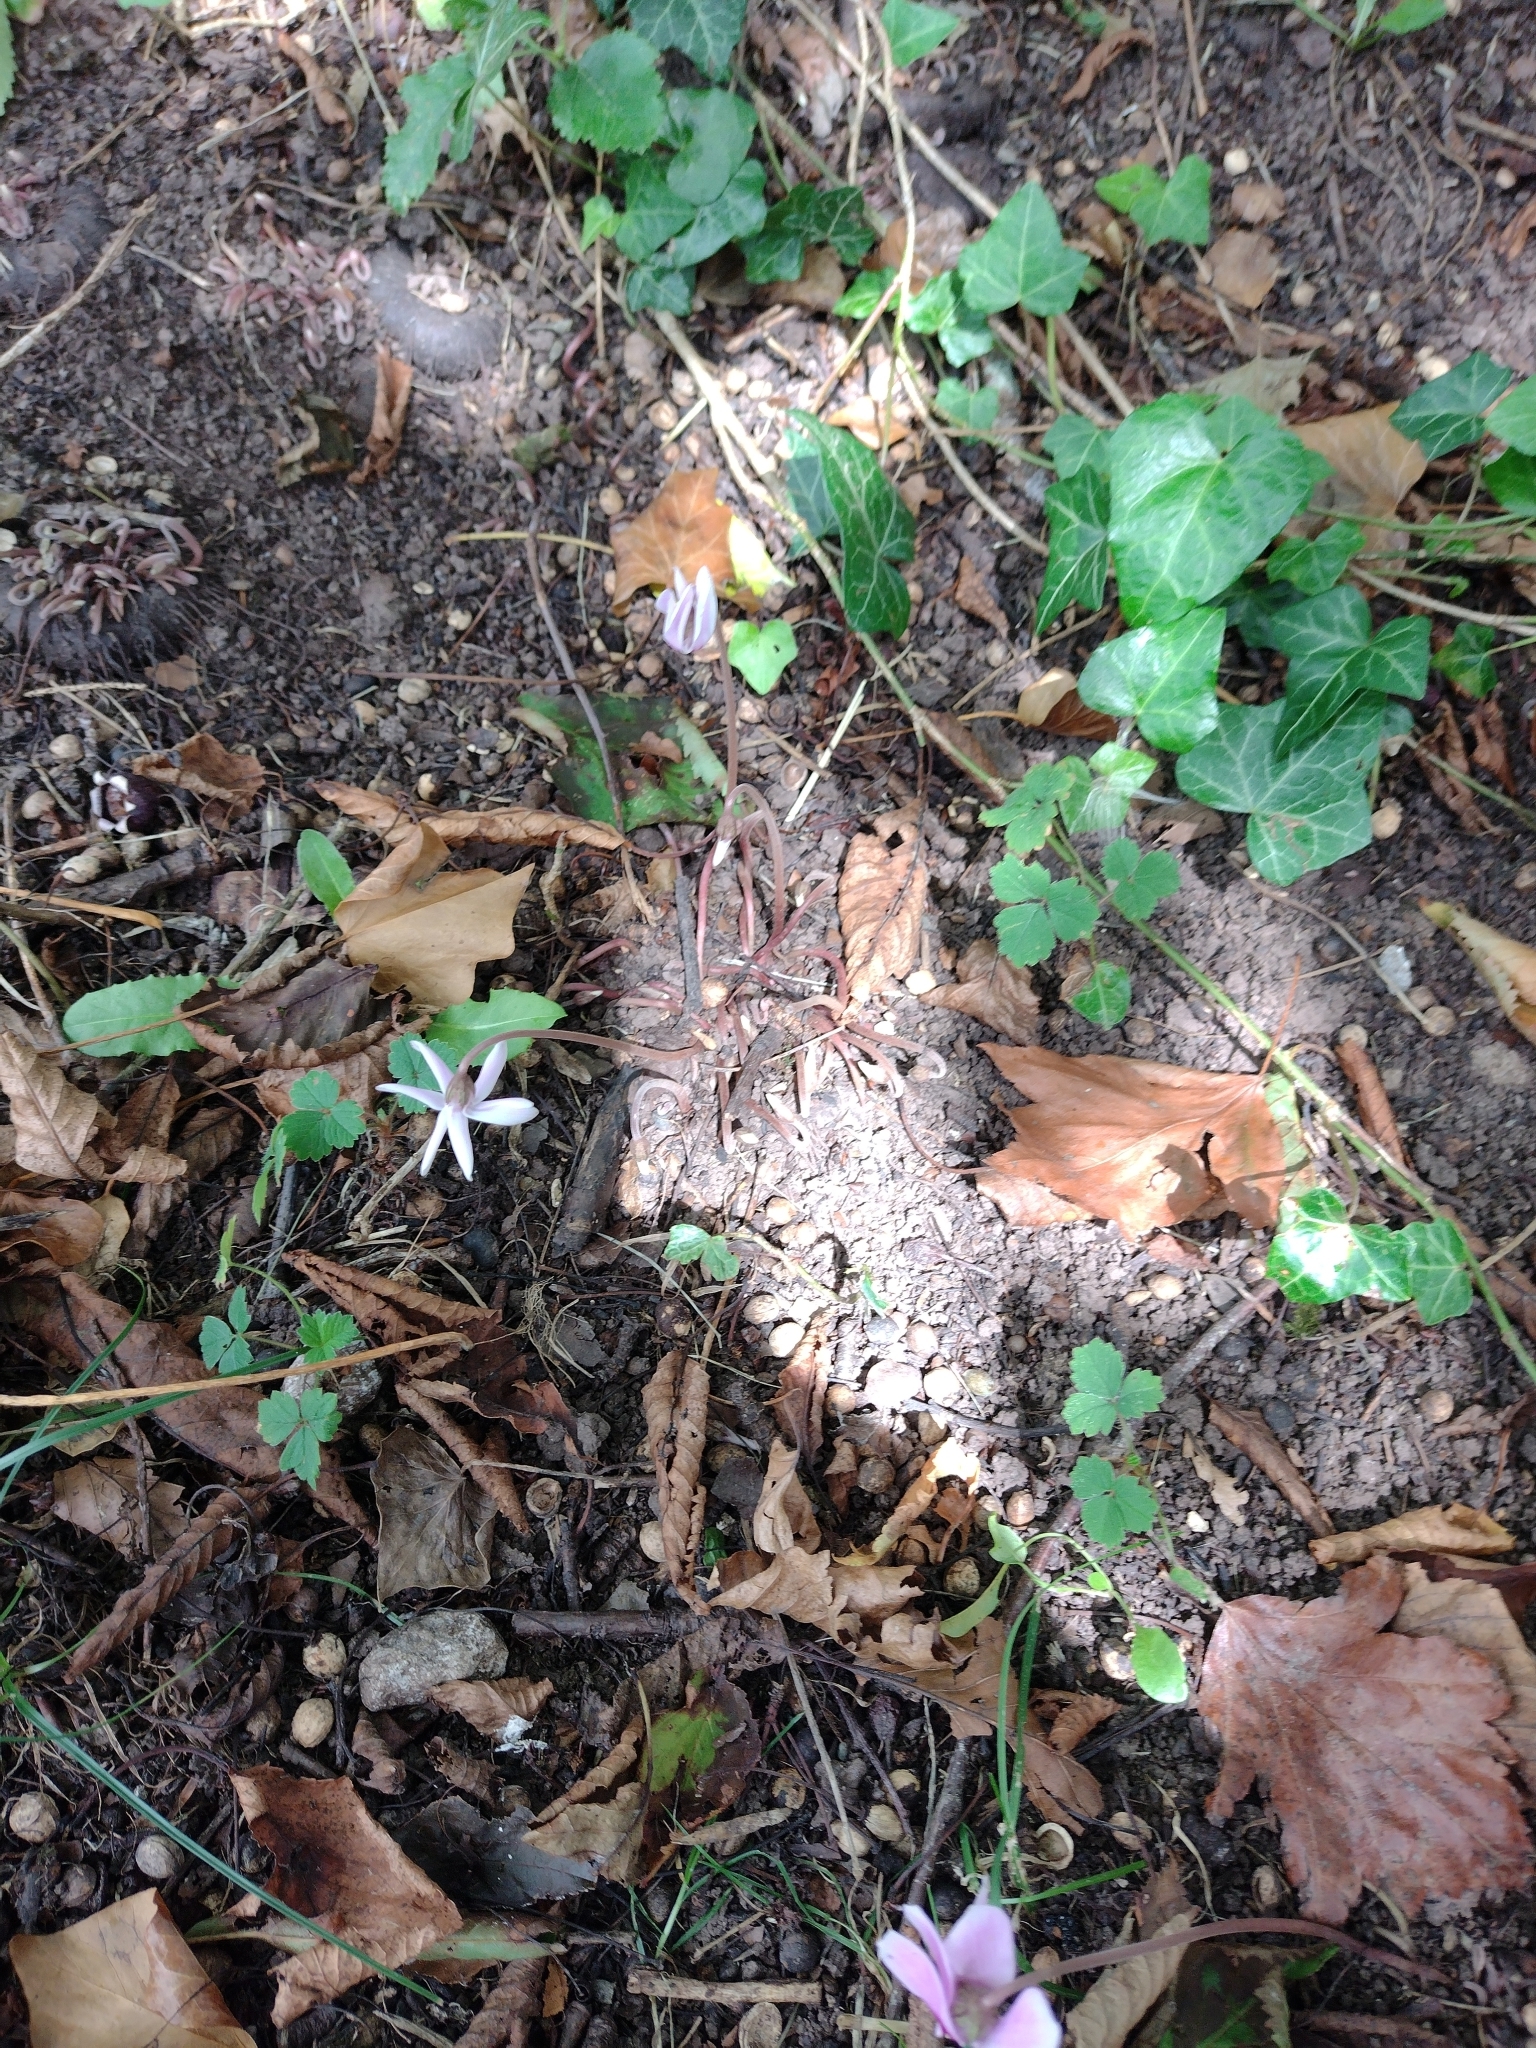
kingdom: Plantae
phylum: Tracheophyta
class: Magnoliopsida
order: Ericales
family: Primulaceae
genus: Cyclamen
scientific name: Cyclamen hederifolium
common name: Sowbread
